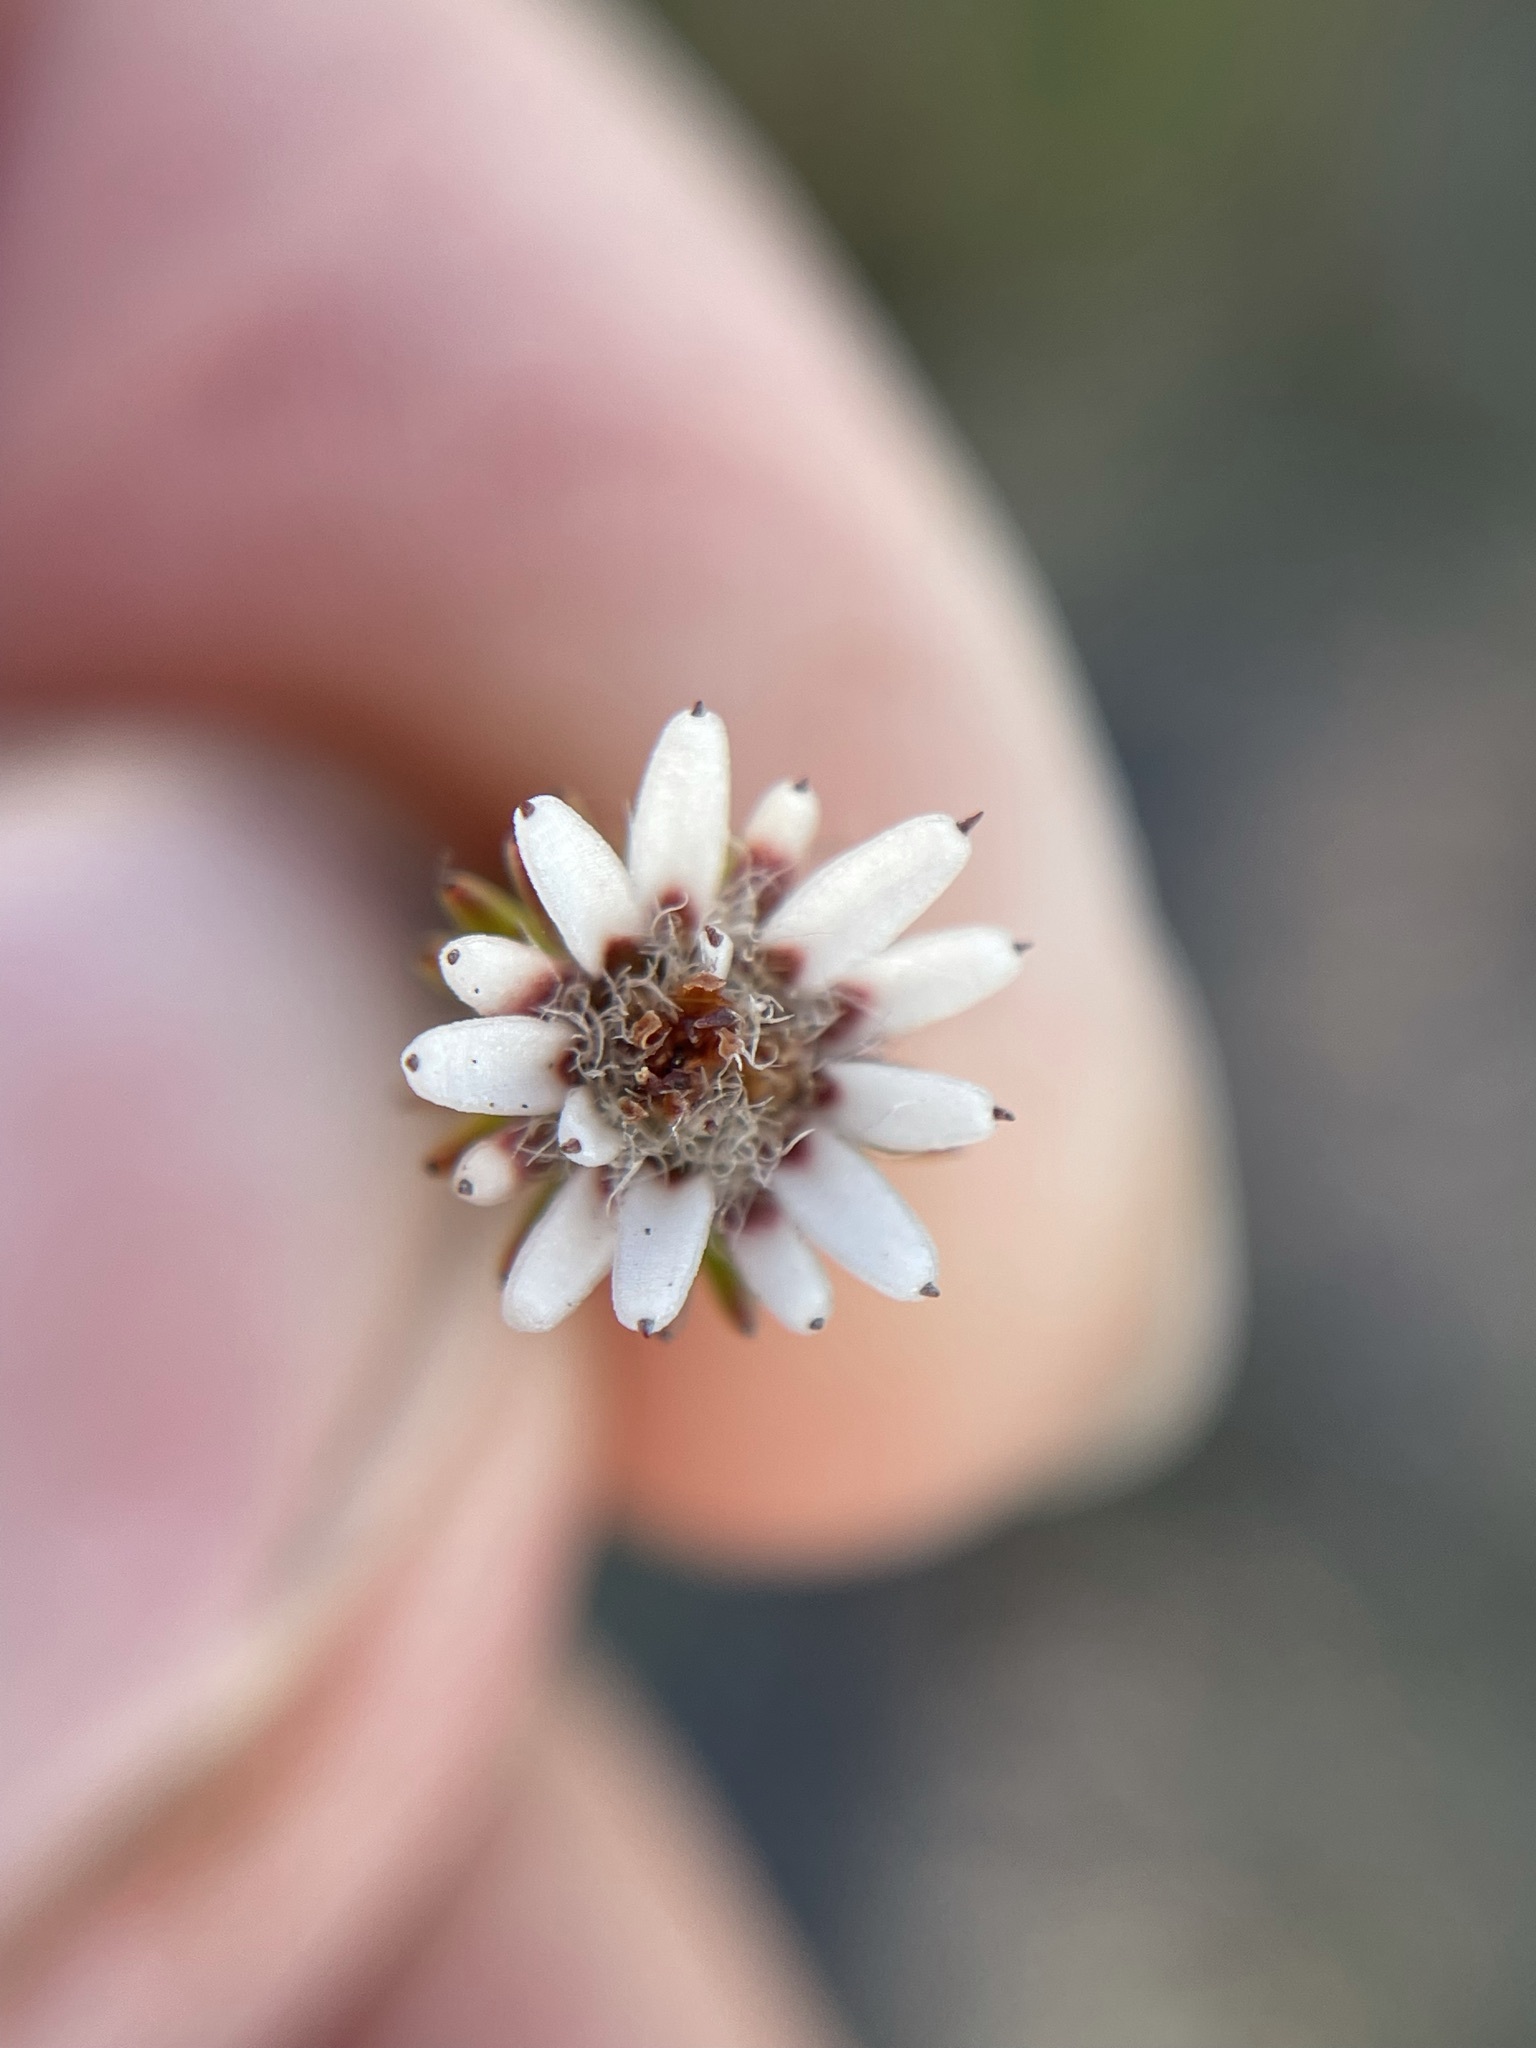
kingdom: Plantae
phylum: Tracheophyta
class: Magnoliopsida
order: Bruniales
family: Bruniaceae
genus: Staavia
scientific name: Staavia radiata
